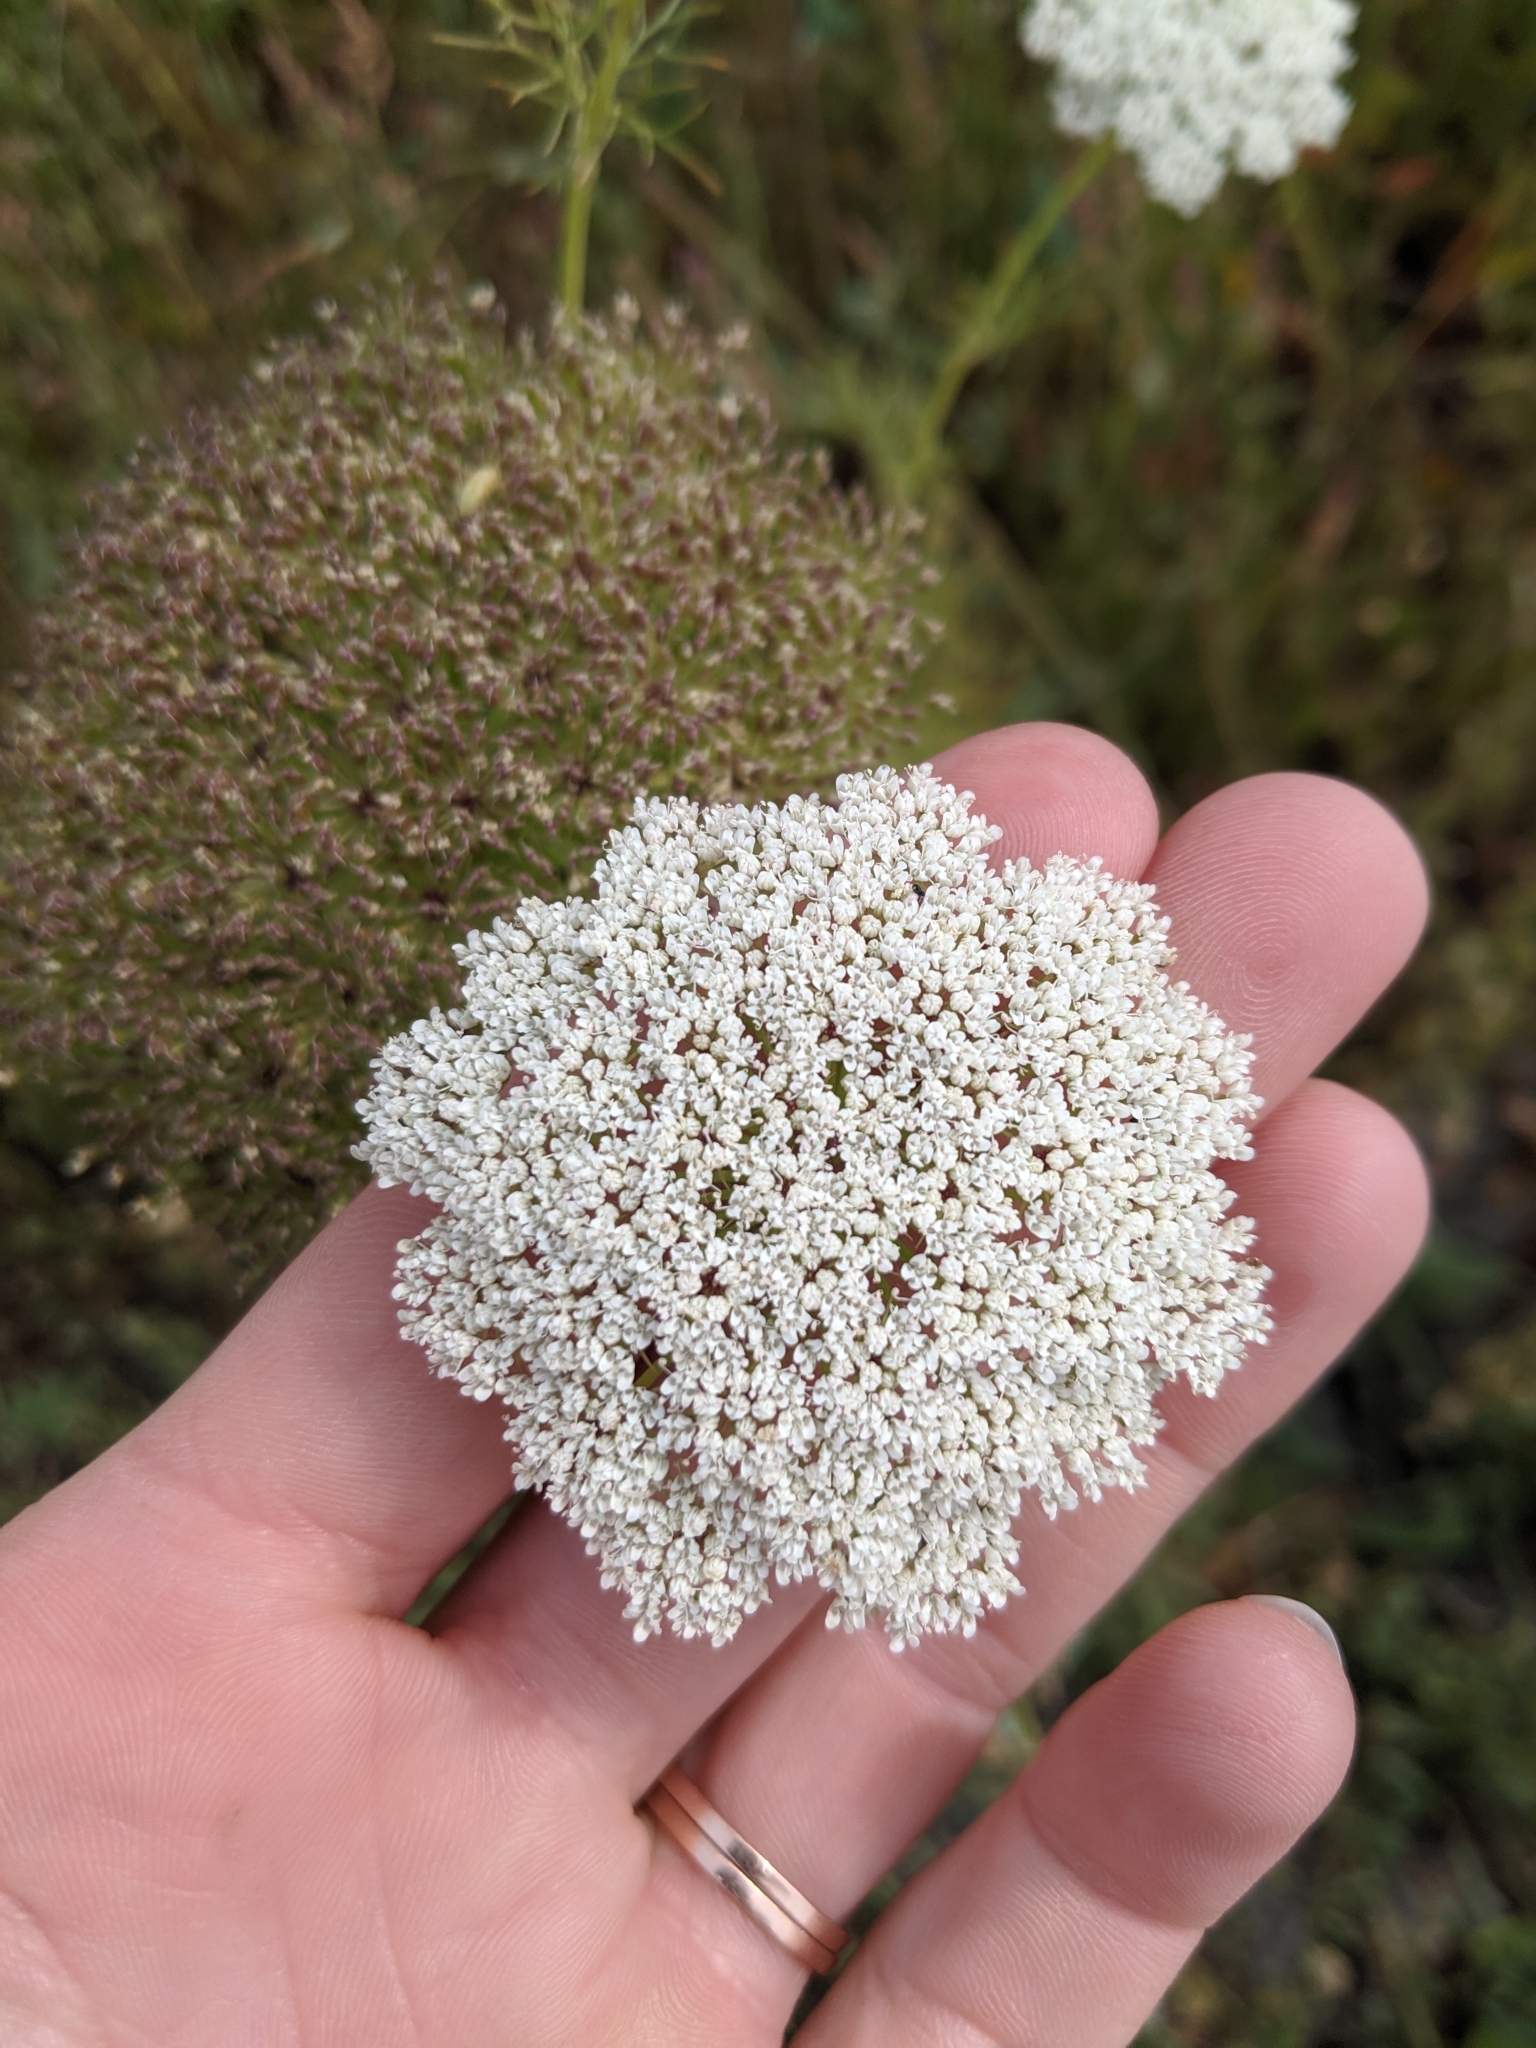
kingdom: Plantae
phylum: Tracheophyta
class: Magnoliopsida
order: Apiales
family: Apiaceae
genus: Visnaga
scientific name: Visnaga daucoides
